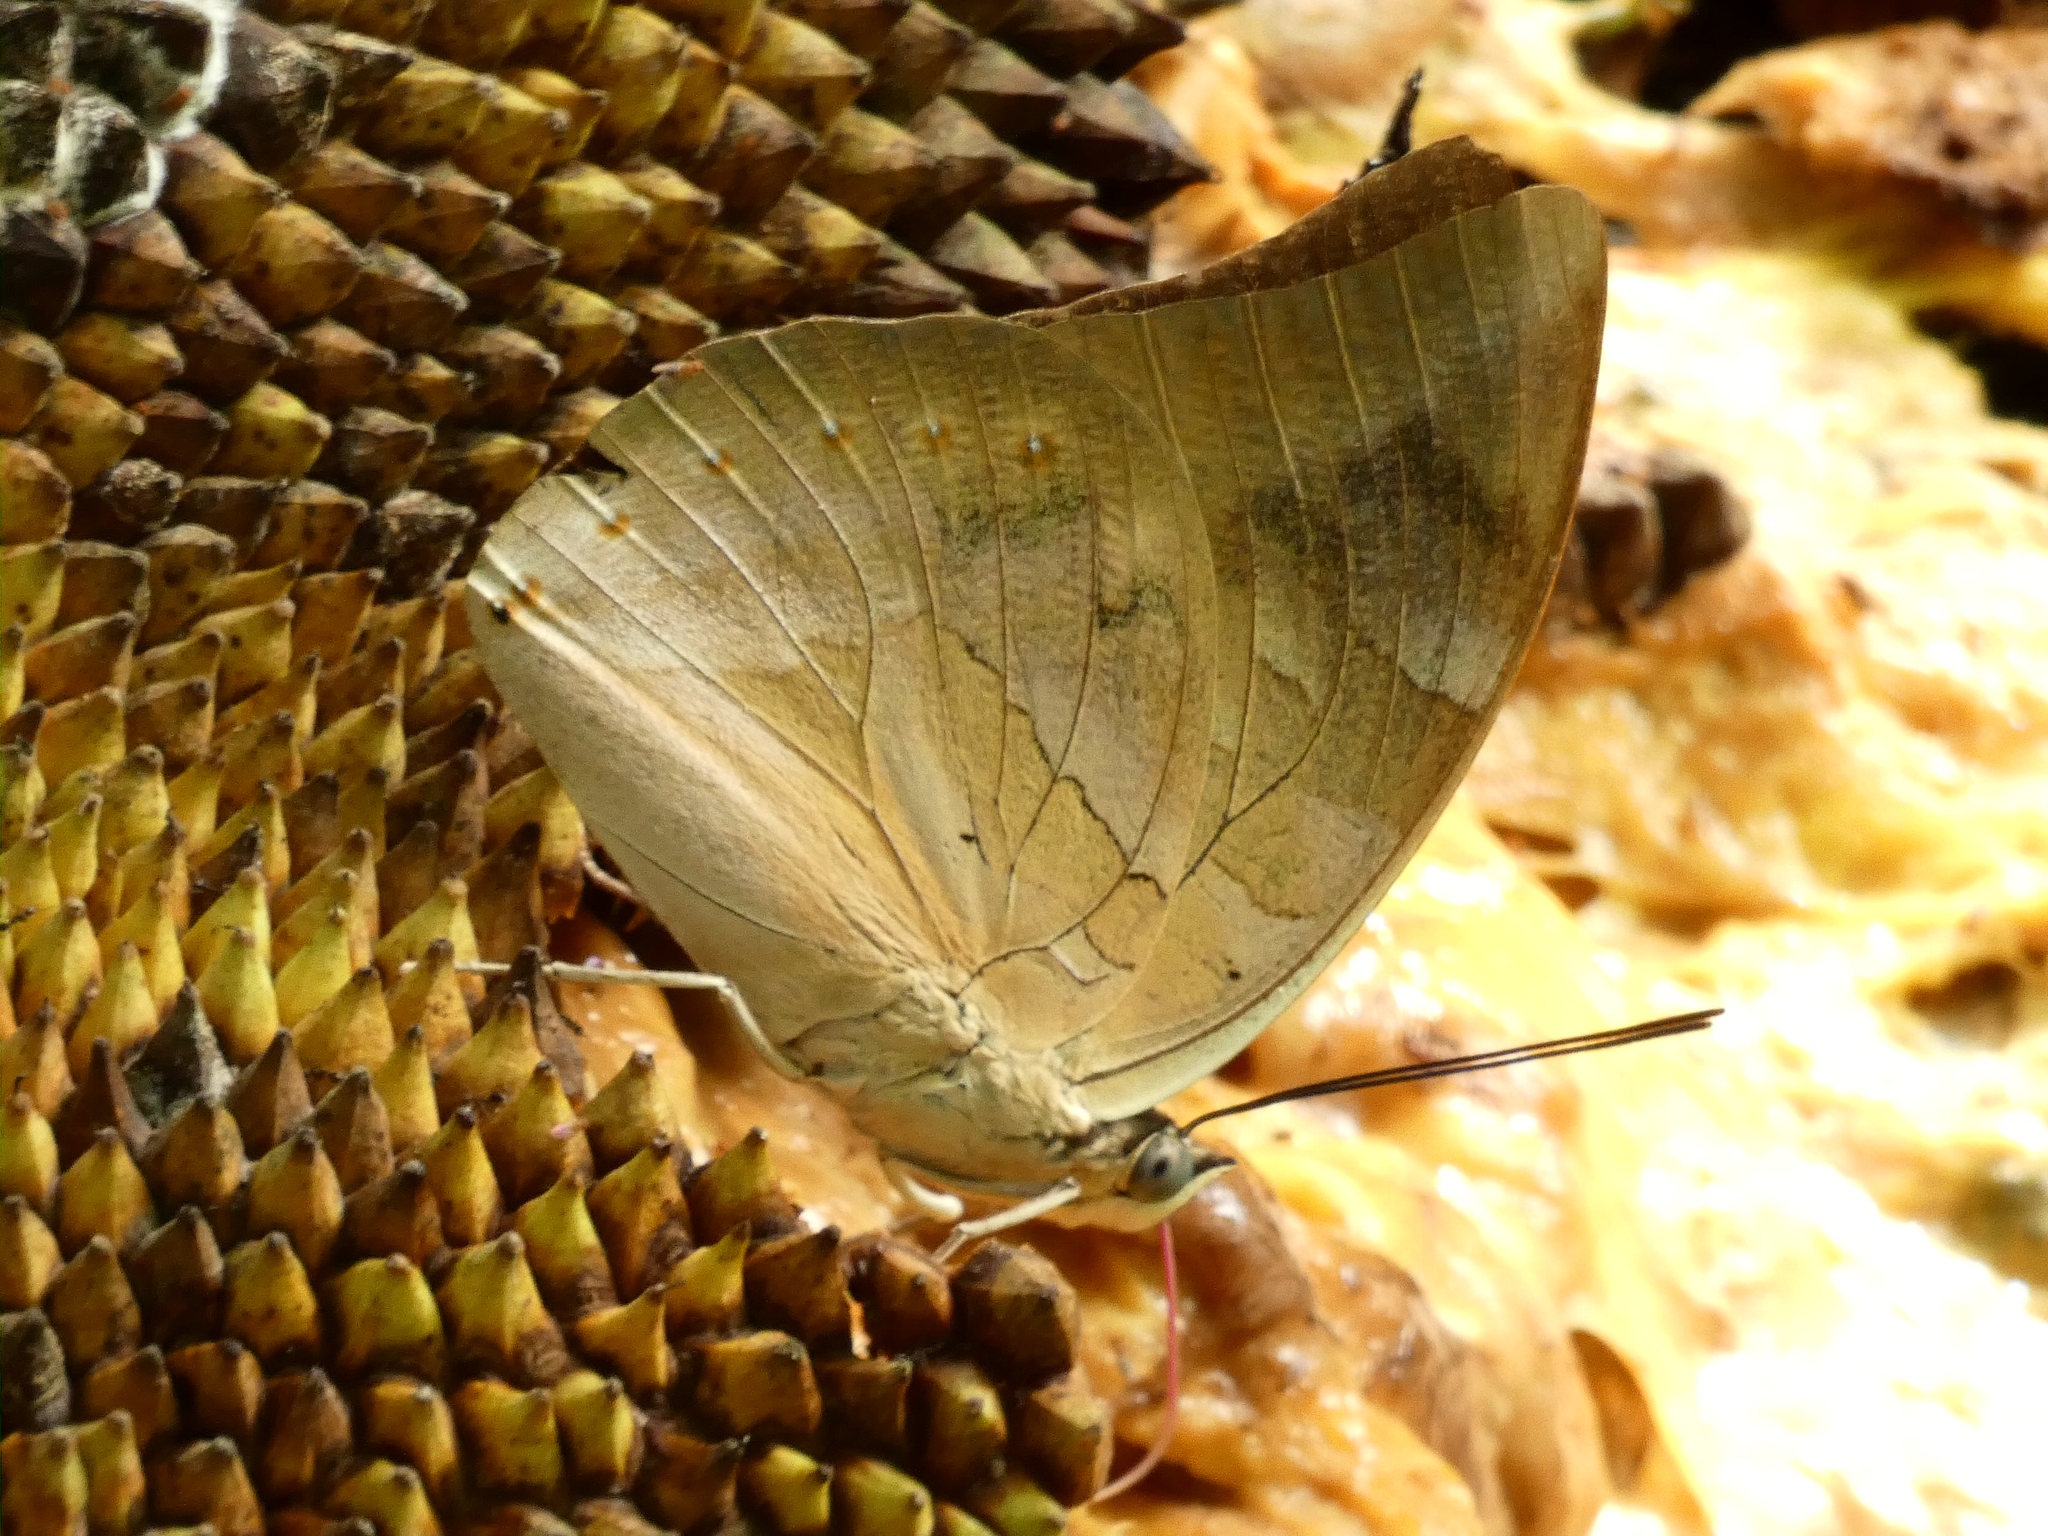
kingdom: Animalia
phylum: Arthropoda
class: Insecta
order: Lepidoptera
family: Nymphalidae
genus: Prepona
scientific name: Prepona demophon
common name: One-spotted prepona
